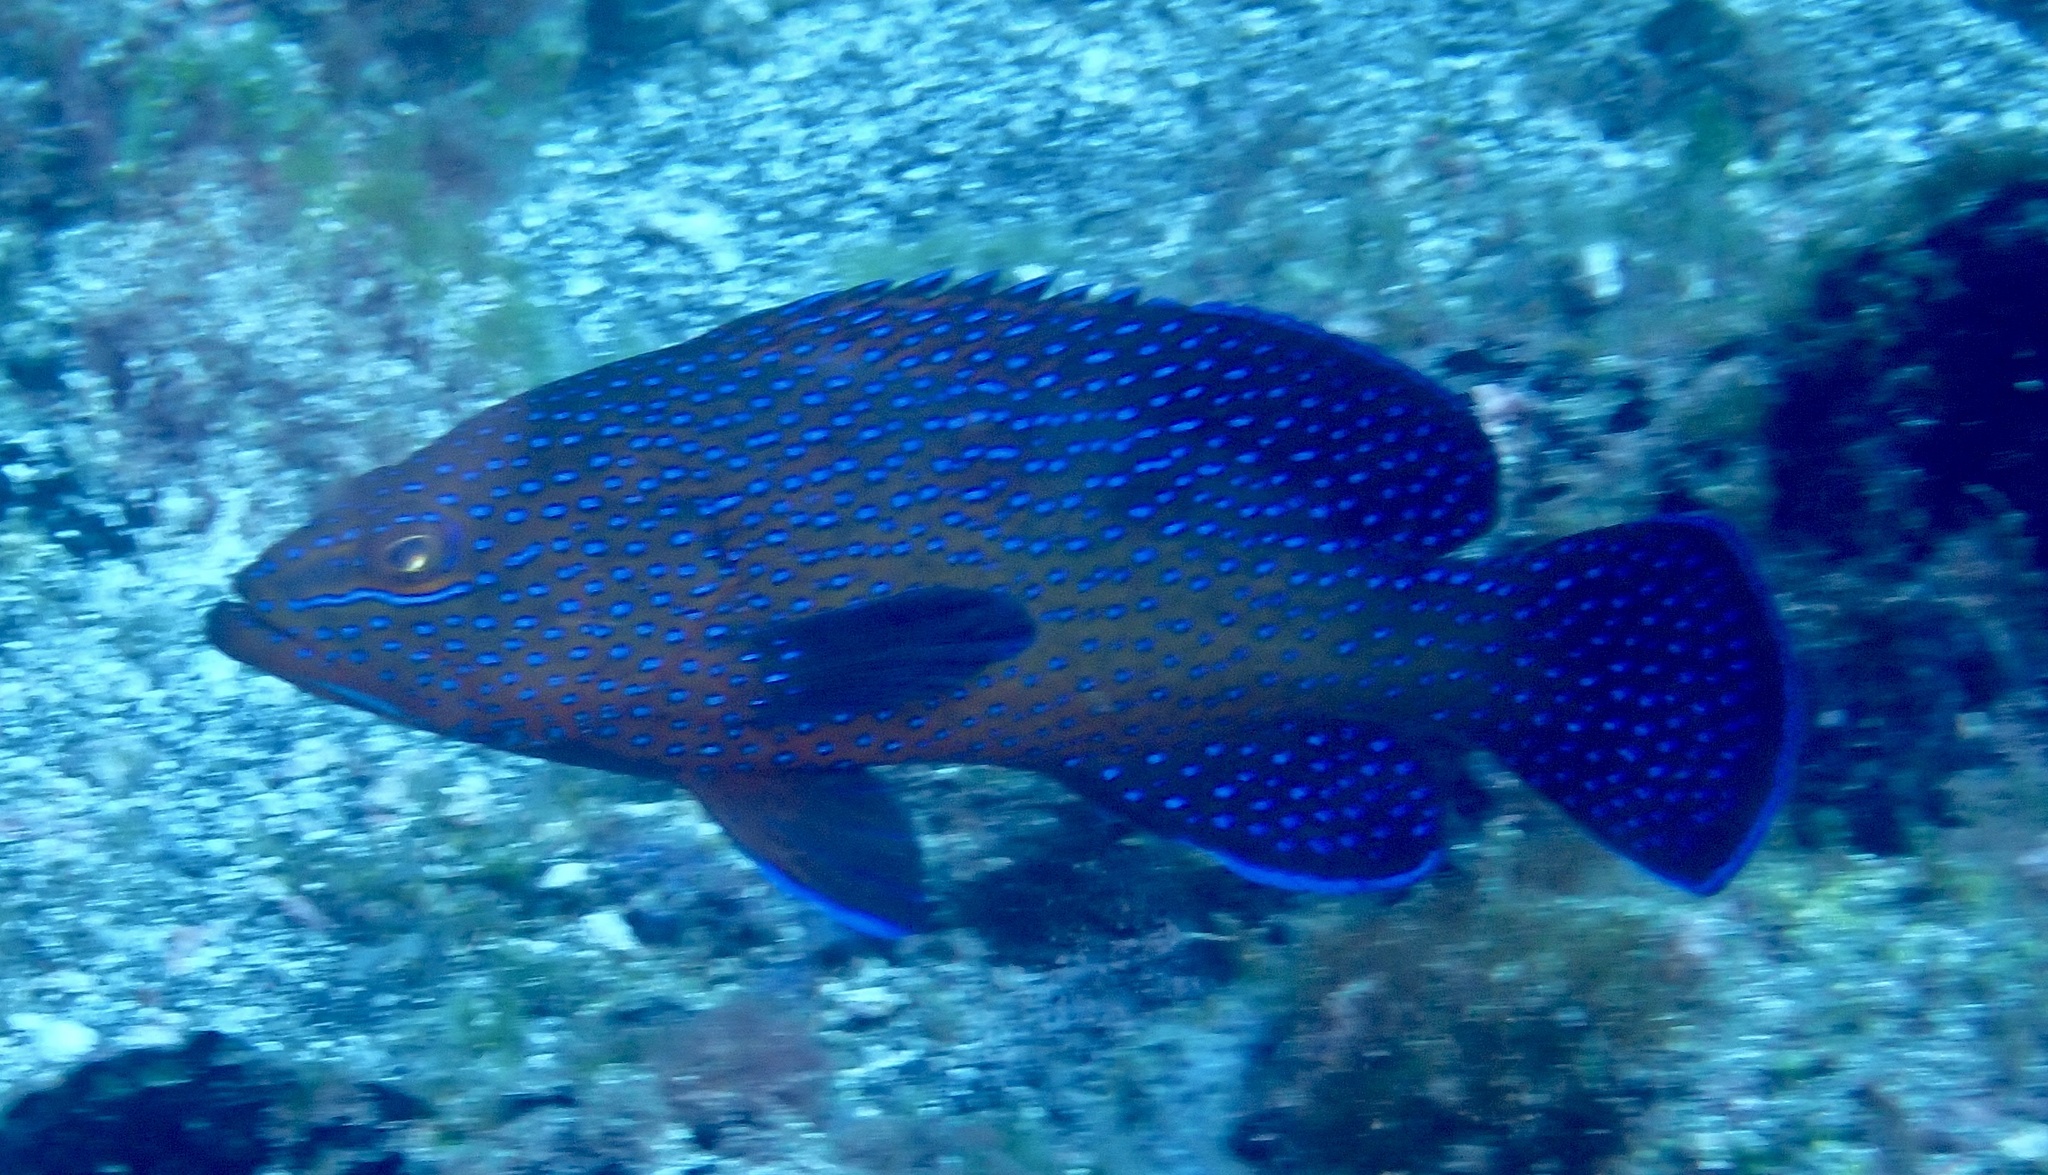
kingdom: Animalia
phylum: Chordata
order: Perciformes
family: Serranidae
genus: Cephalopholis
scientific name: Cephalopholis taeniops
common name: African hind
